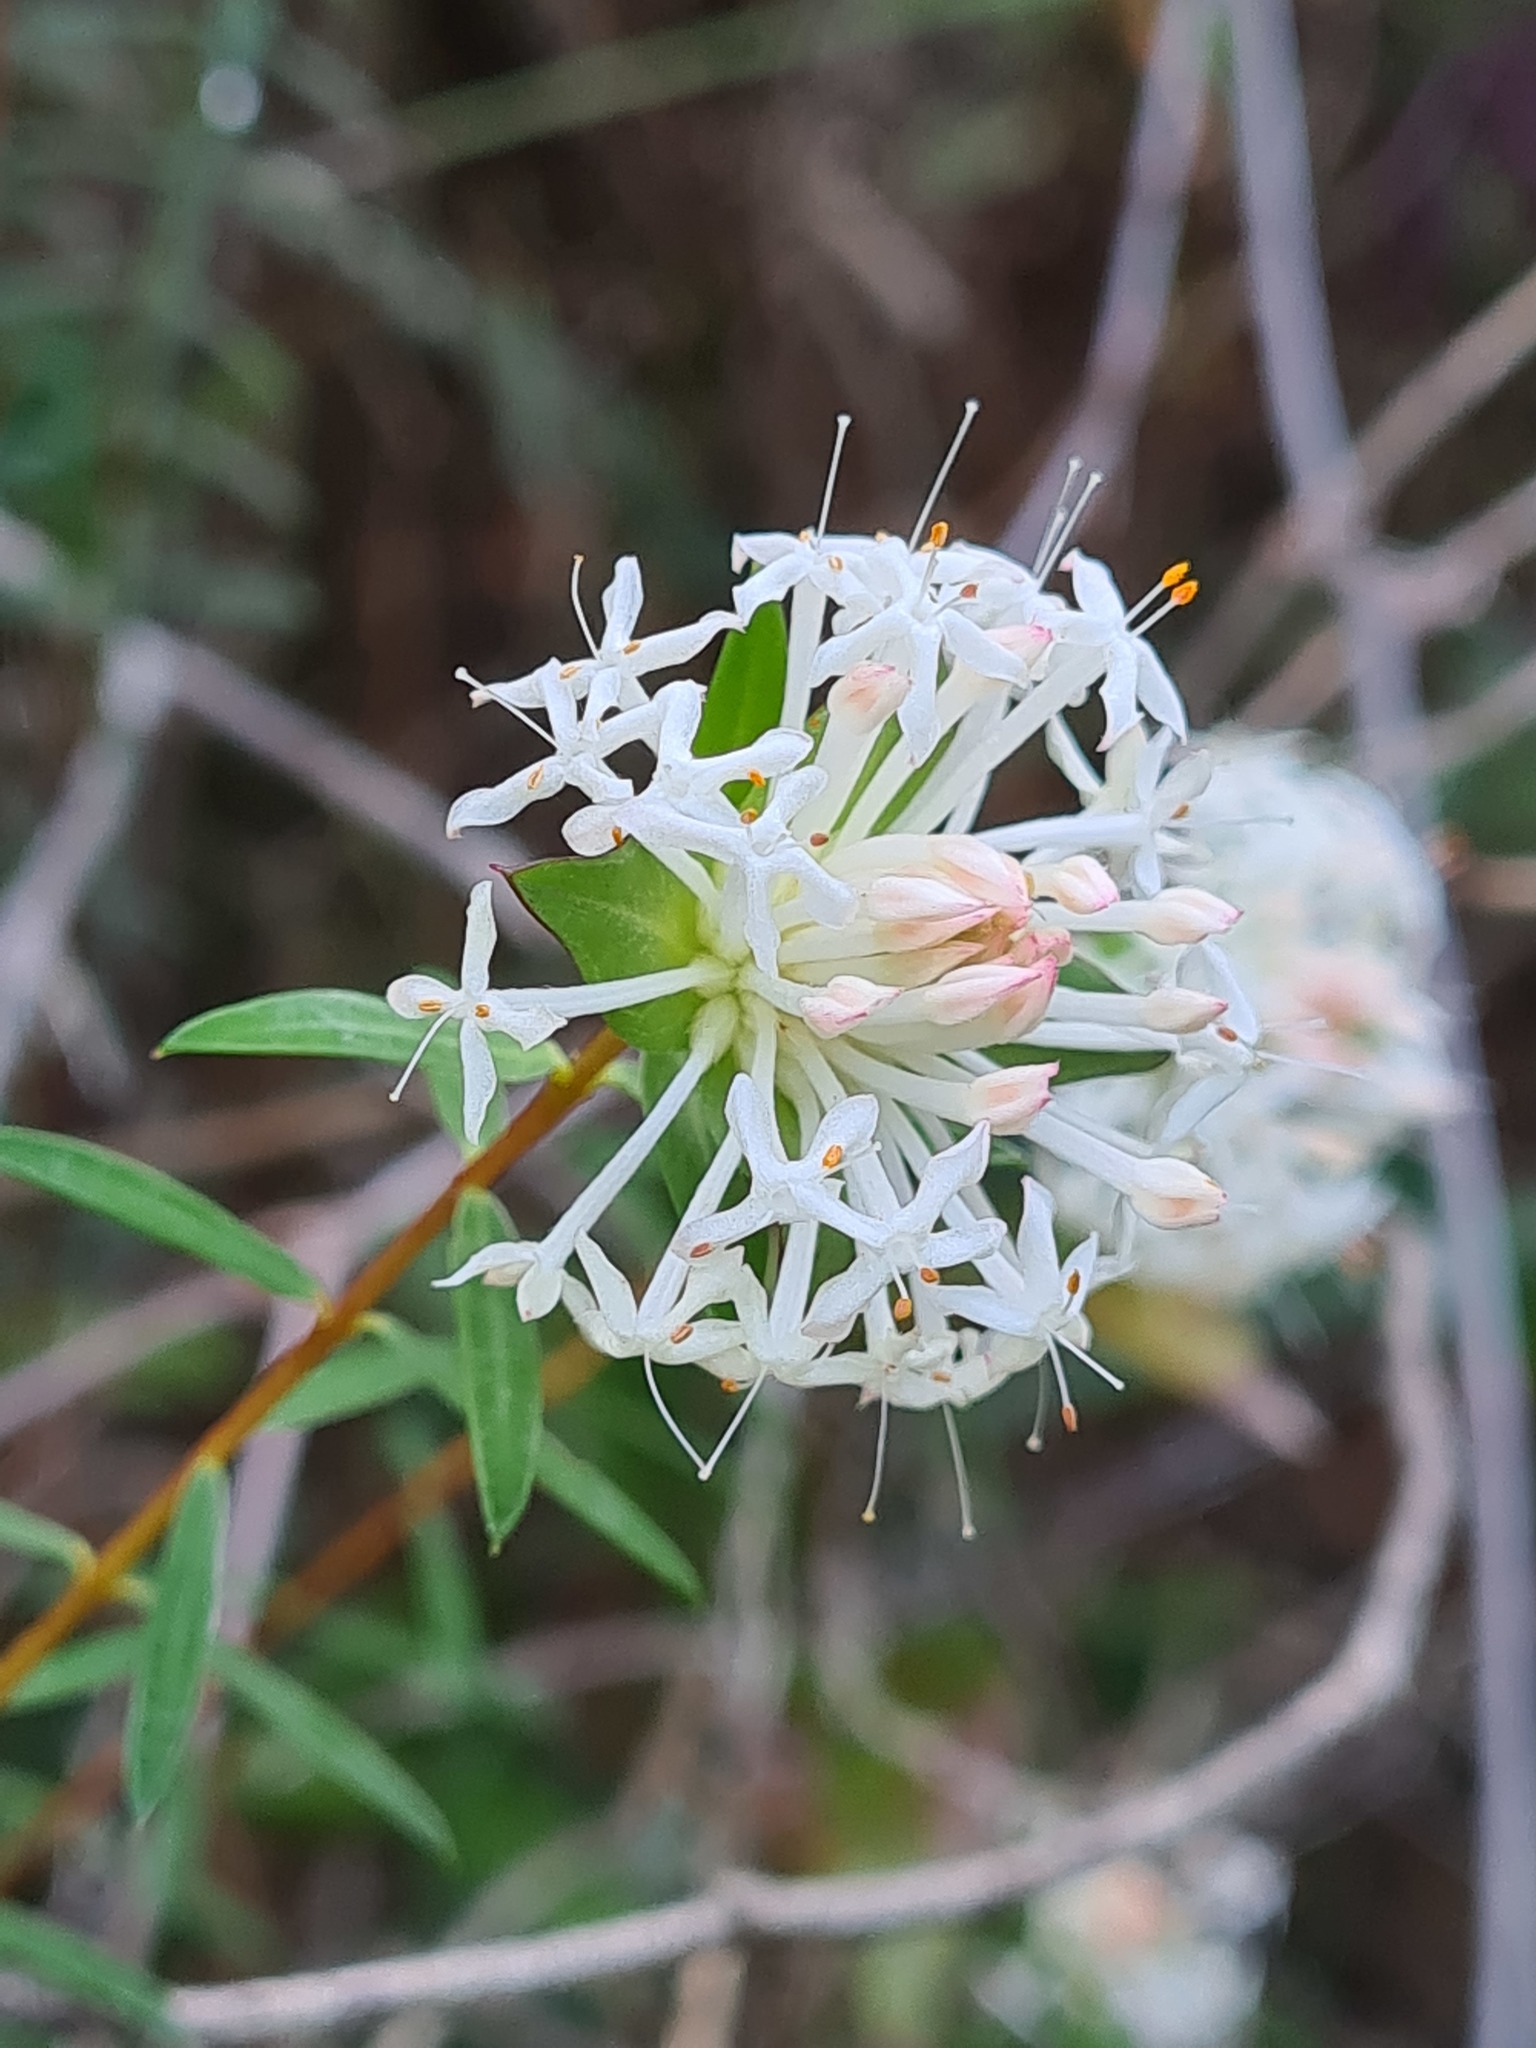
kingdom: Plantae
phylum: Tracheophyta
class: Magnoliopsida
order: Malvales
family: Thymelaeaceae
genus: Pimelea
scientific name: Pimelea linifolia
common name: Queen-of-the-bush
